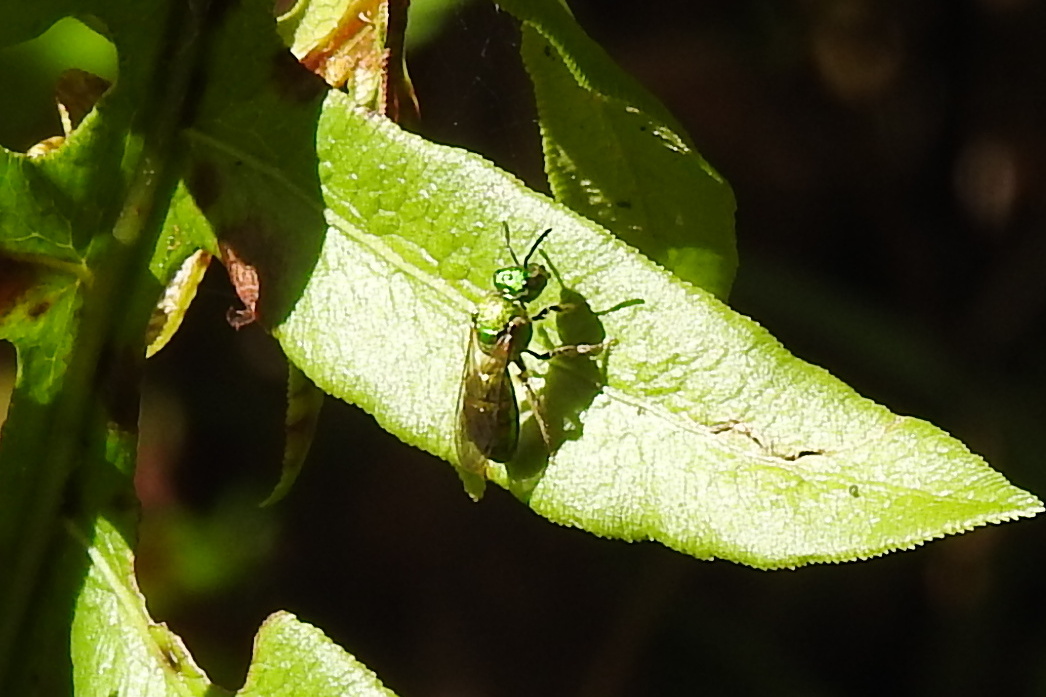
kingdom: Animalia
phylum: Arthropoda
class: Insecta
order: Hymenoptera
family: Halictidae
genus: Augochlora
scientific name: Augochlora pura
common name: Pure green sweat bee
